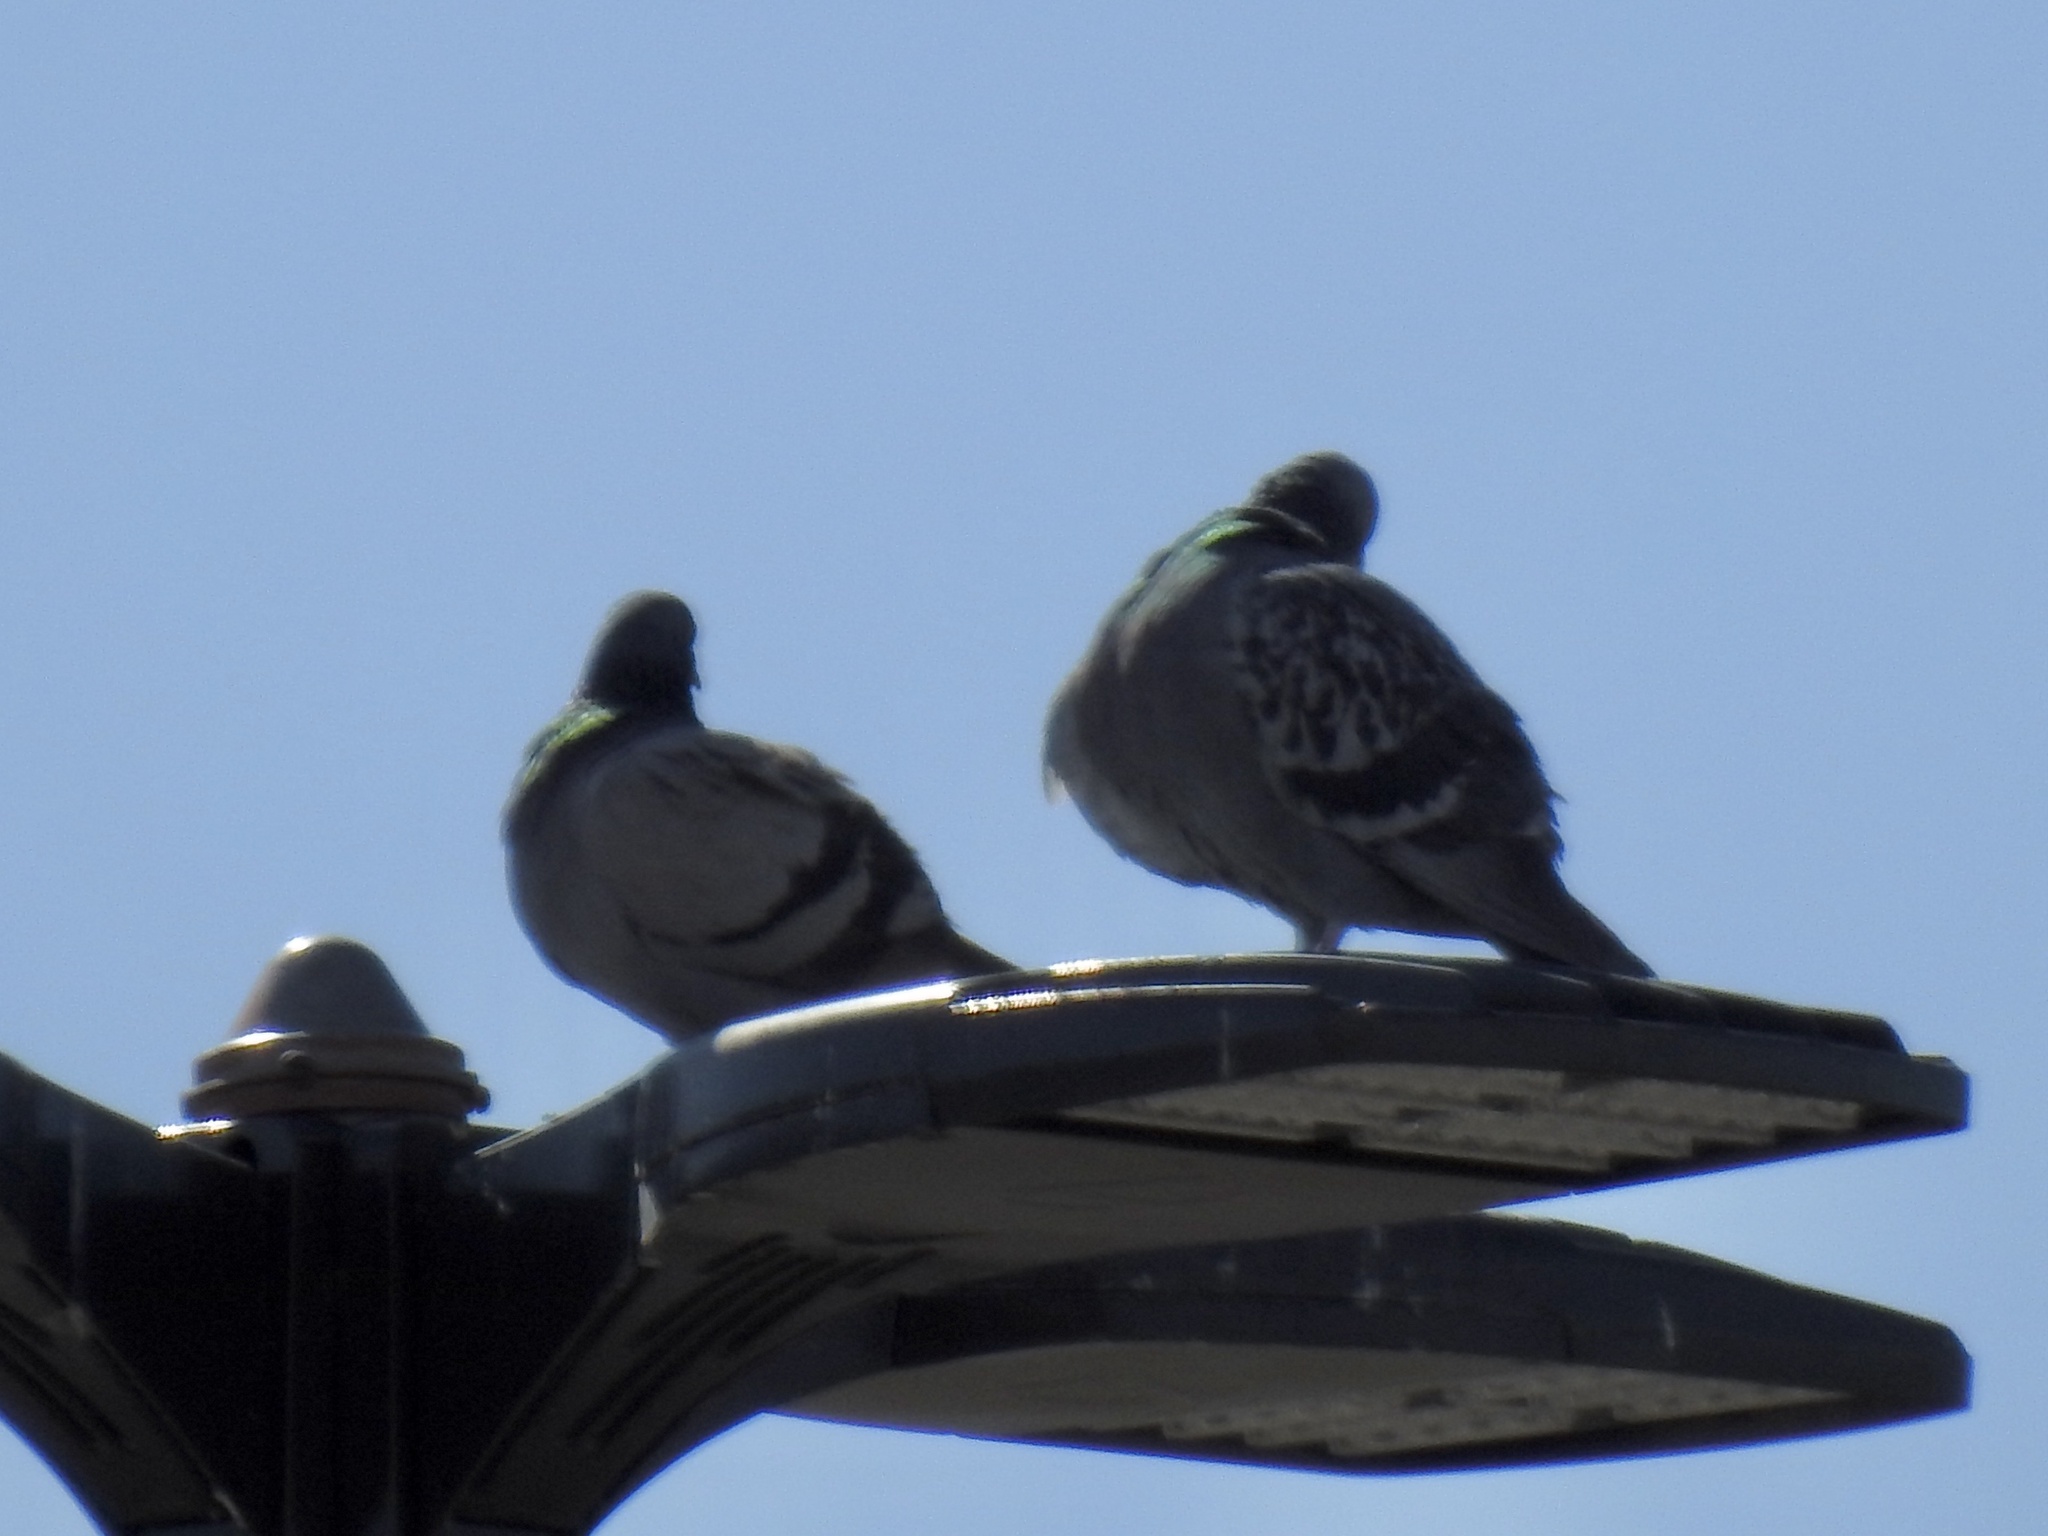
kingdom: Animalia
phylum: Chordata
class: Aves
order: Columbiformes
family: Columbidae
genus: Columba
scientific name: Columba livia
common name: Rock pigeon
